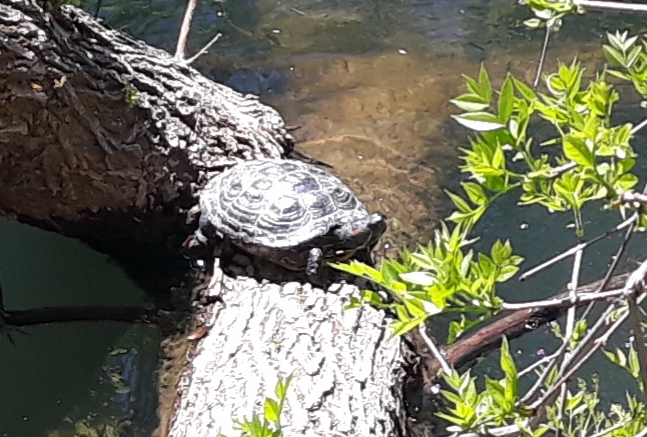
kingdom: Animalia
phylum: Chordata
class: Testudines
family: Emydidae
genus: Trachemys
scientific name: Trachemys scripta
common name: Slider
